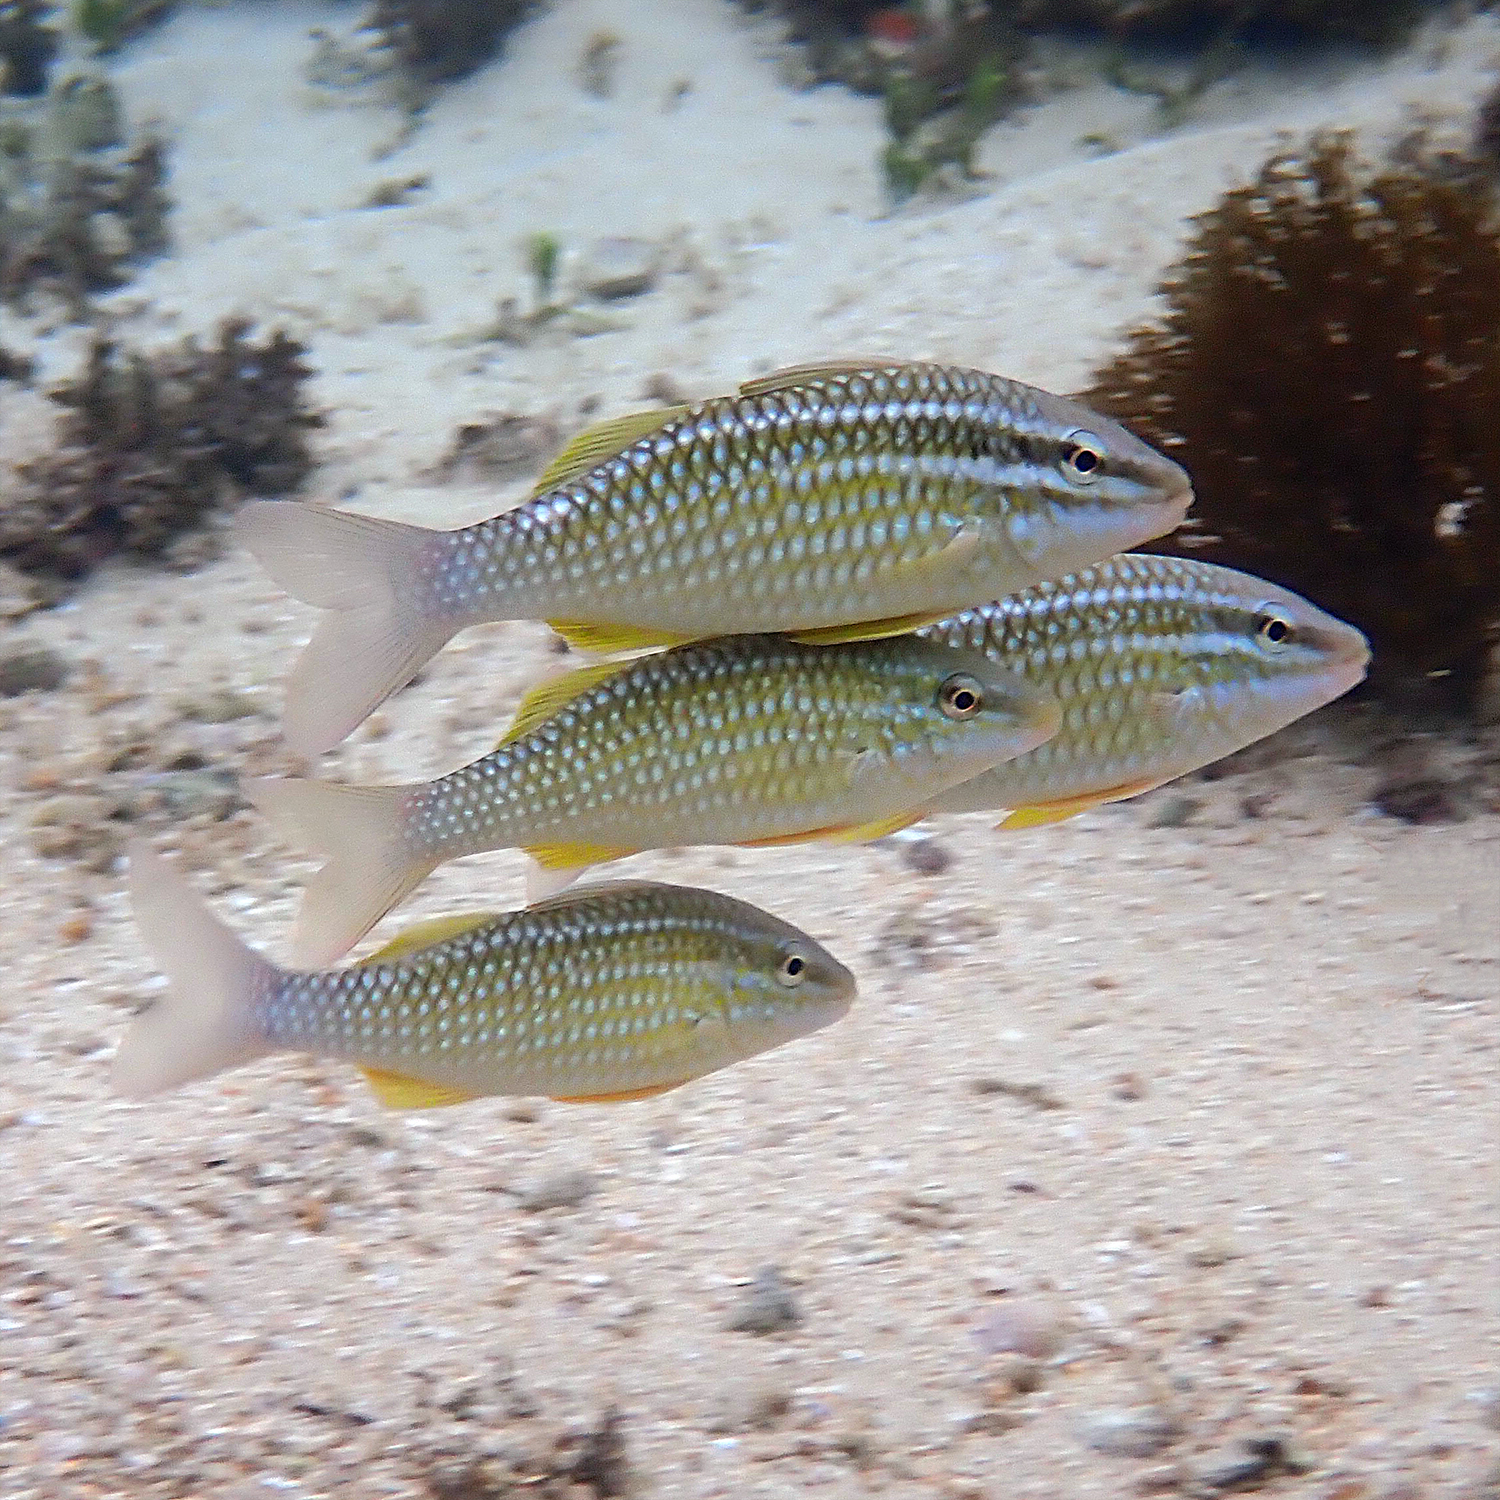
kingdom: Animalia
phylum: Chordata
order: Perciformes
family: Mullidae
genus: Parupeneus
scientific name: Parupeneus ciliatus
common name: White-lined goatfish
